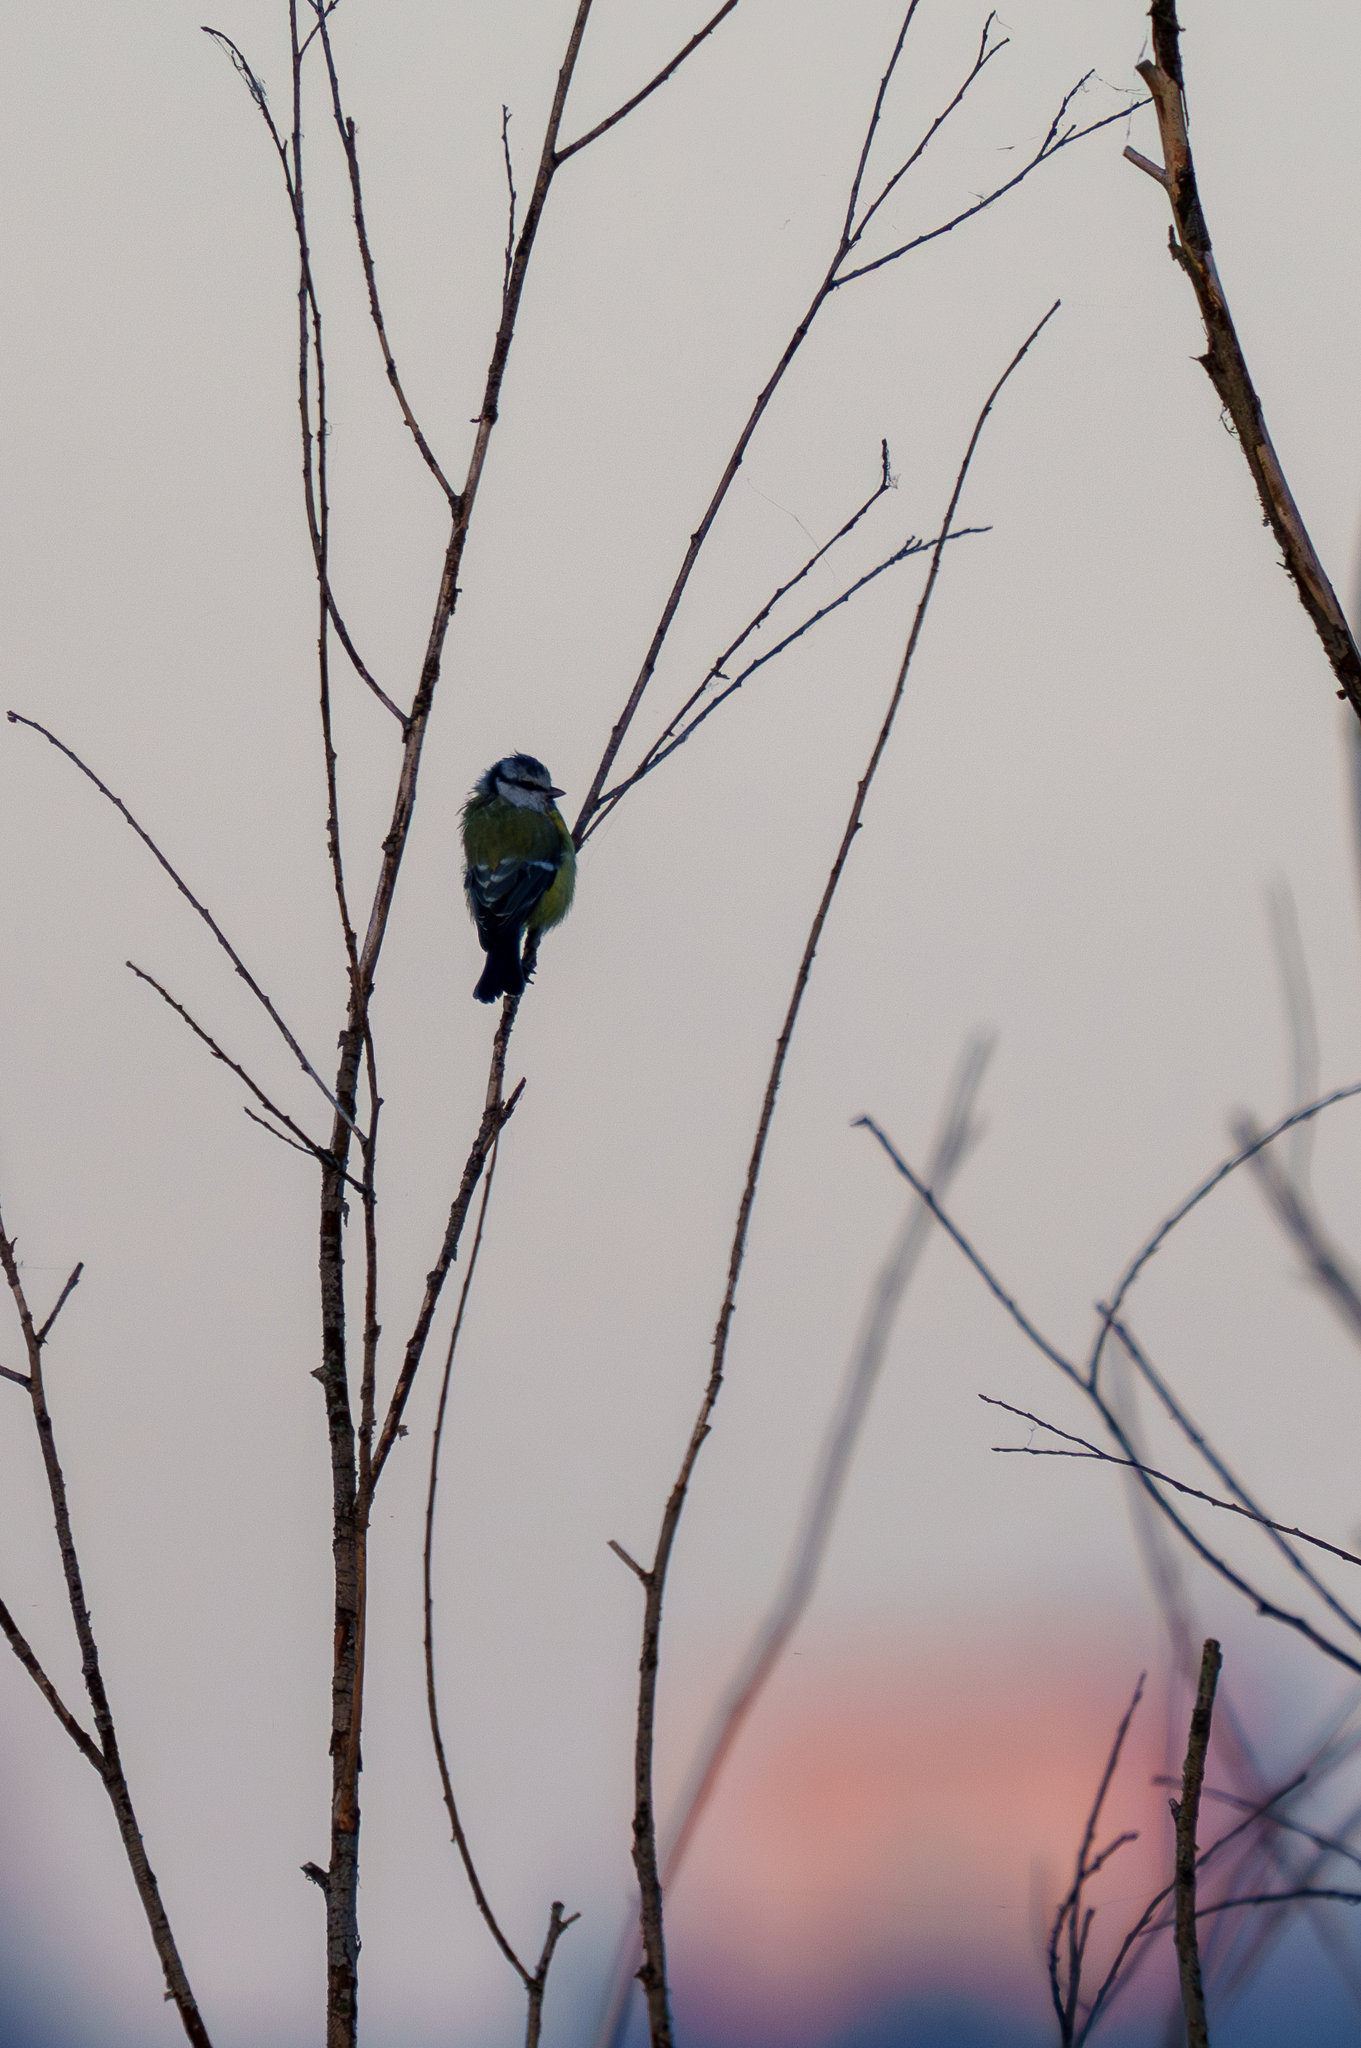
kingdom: Animalia
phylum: Chordata
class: Aves
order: Passeriformes
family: Paridae
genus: Cyanistes
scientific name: Cyanistes caeruleus
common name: Eurasian blue tit
